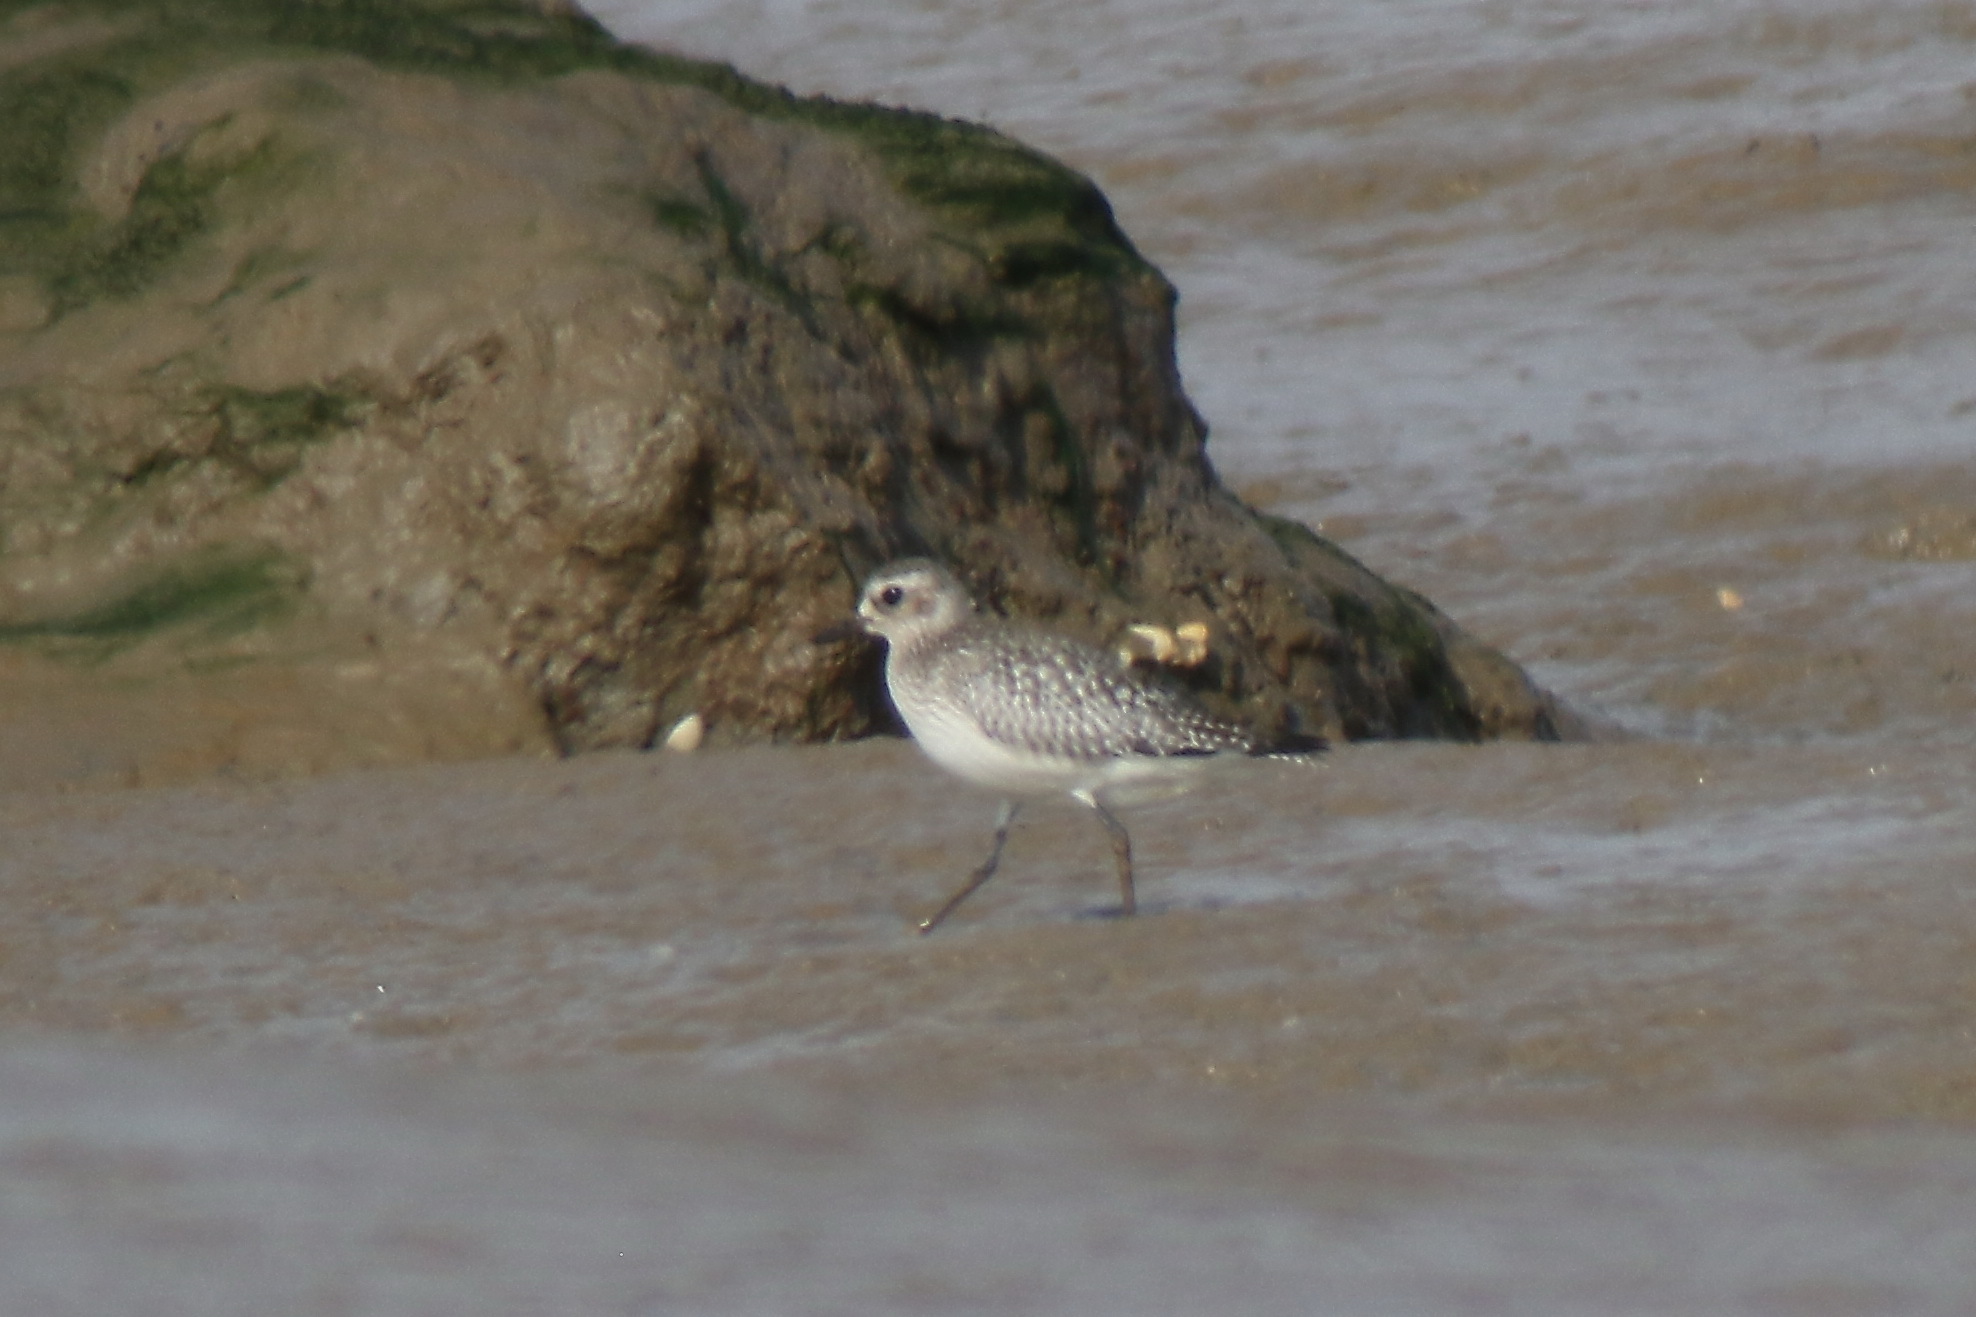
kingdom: Animalia
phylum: Chordata
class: Aves
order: Charadriiformes
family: Charadriidae
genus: Pluvialis
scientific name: Pluvialis squatarola
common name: Grey plover
